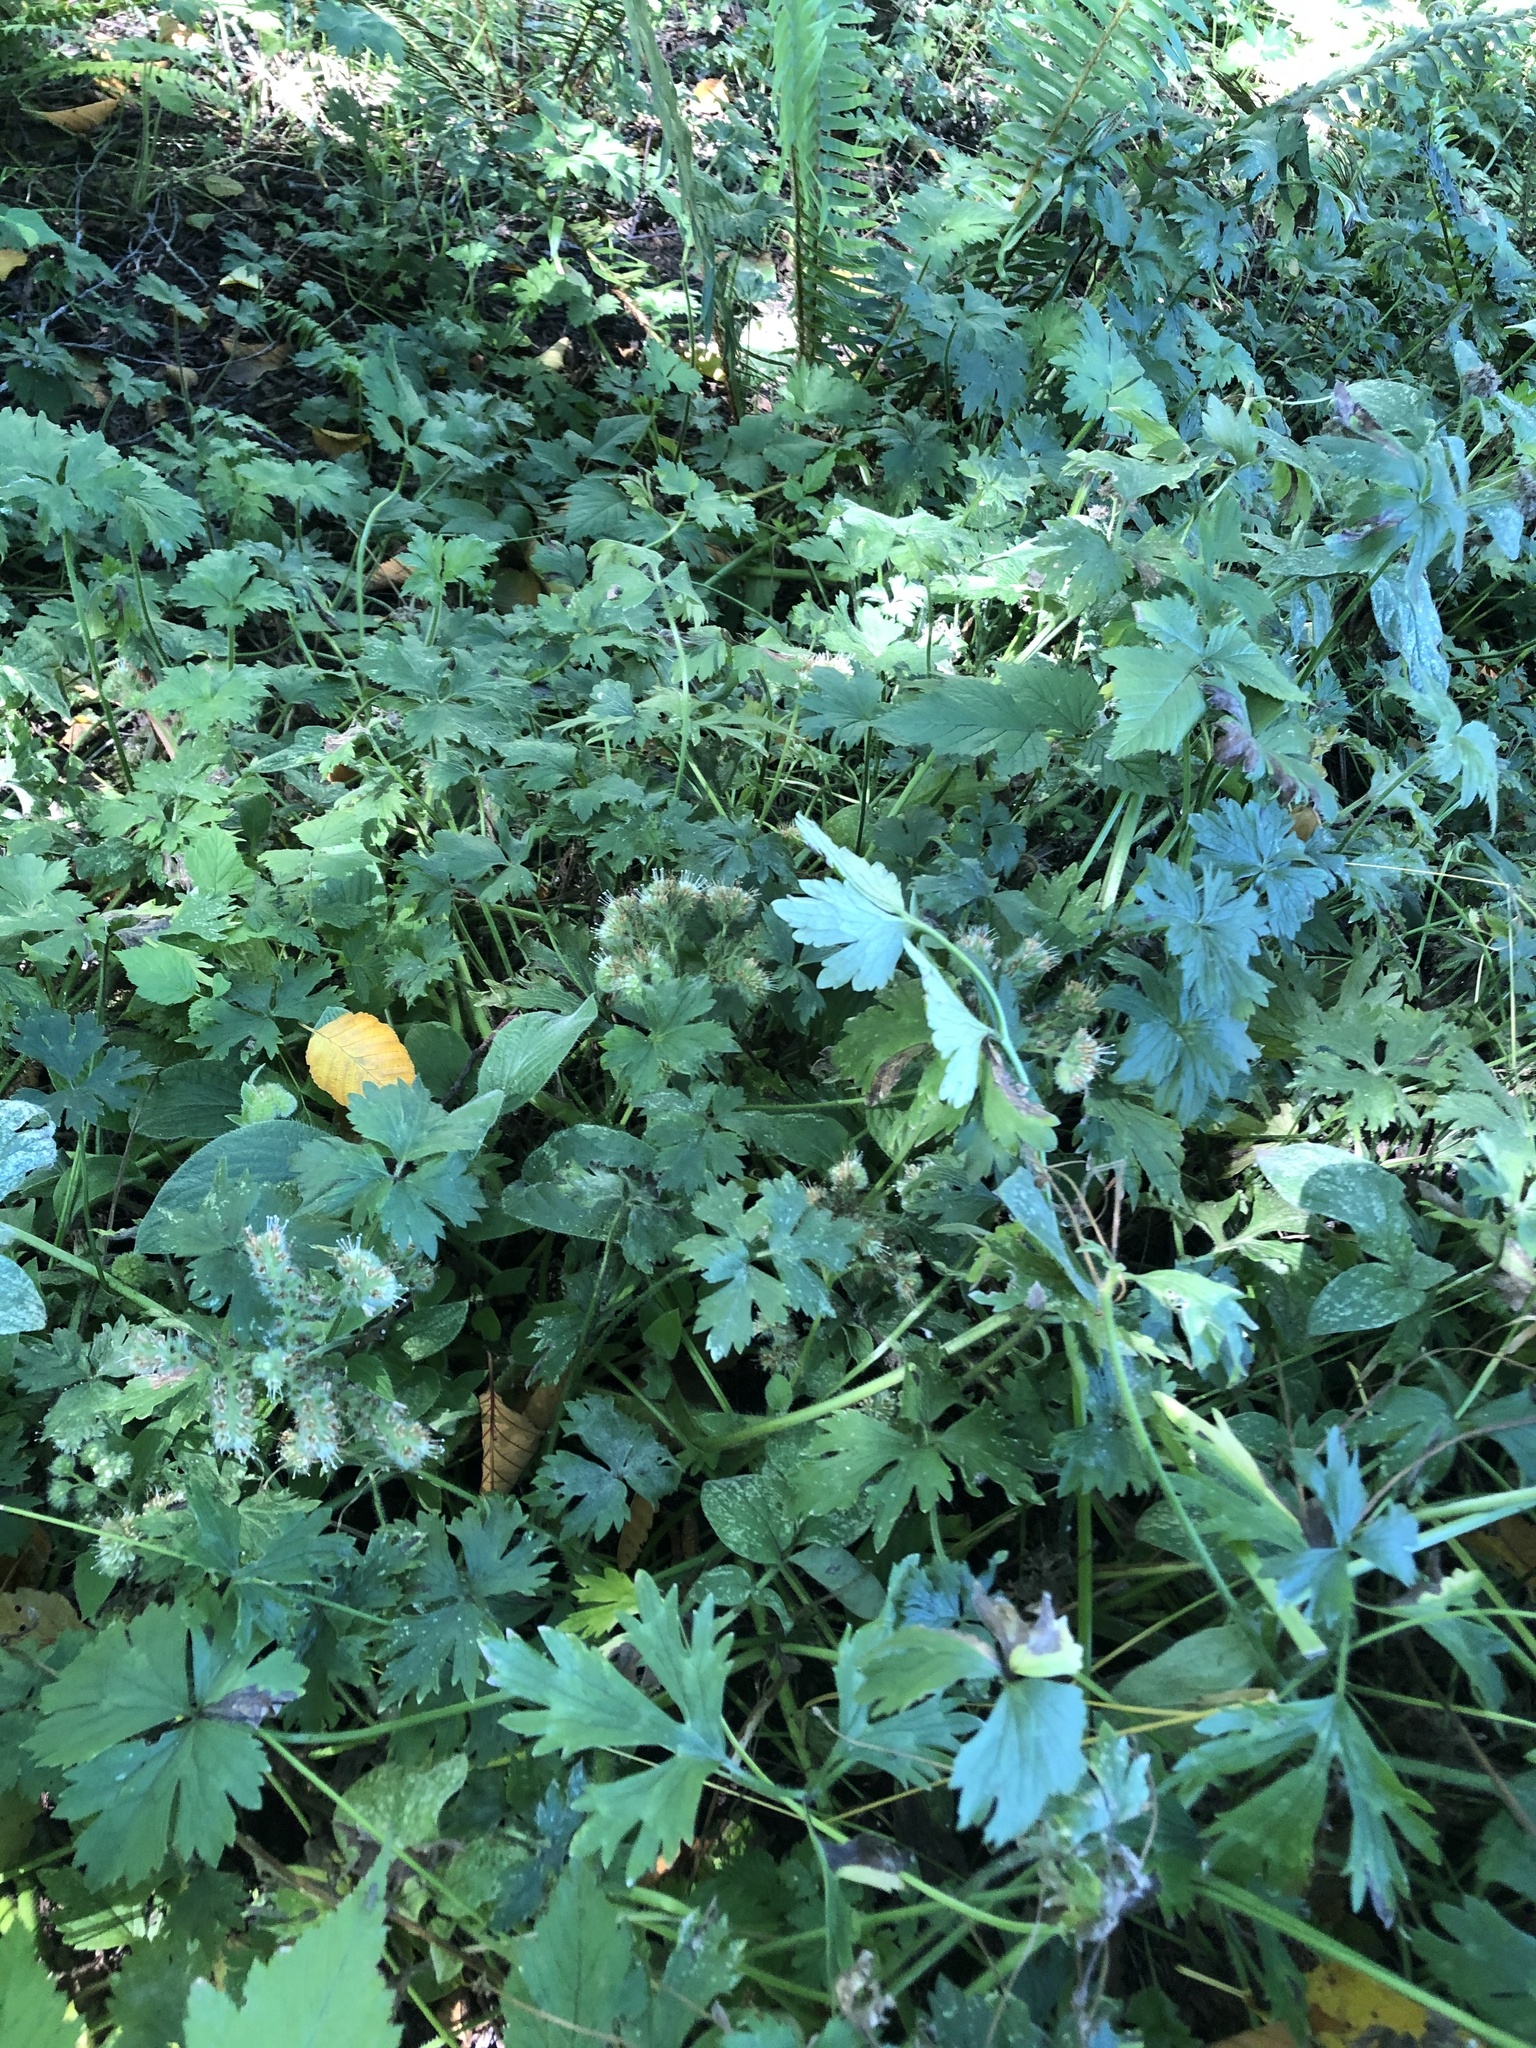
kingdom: Plantae
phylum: Tracheophyta
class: Magnoliopsida
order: Boraginales
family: Hydrophyllaceae
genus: Hydrophyllum
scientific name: Hydrophyllum tenuipes
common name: Pacific waterleaf
